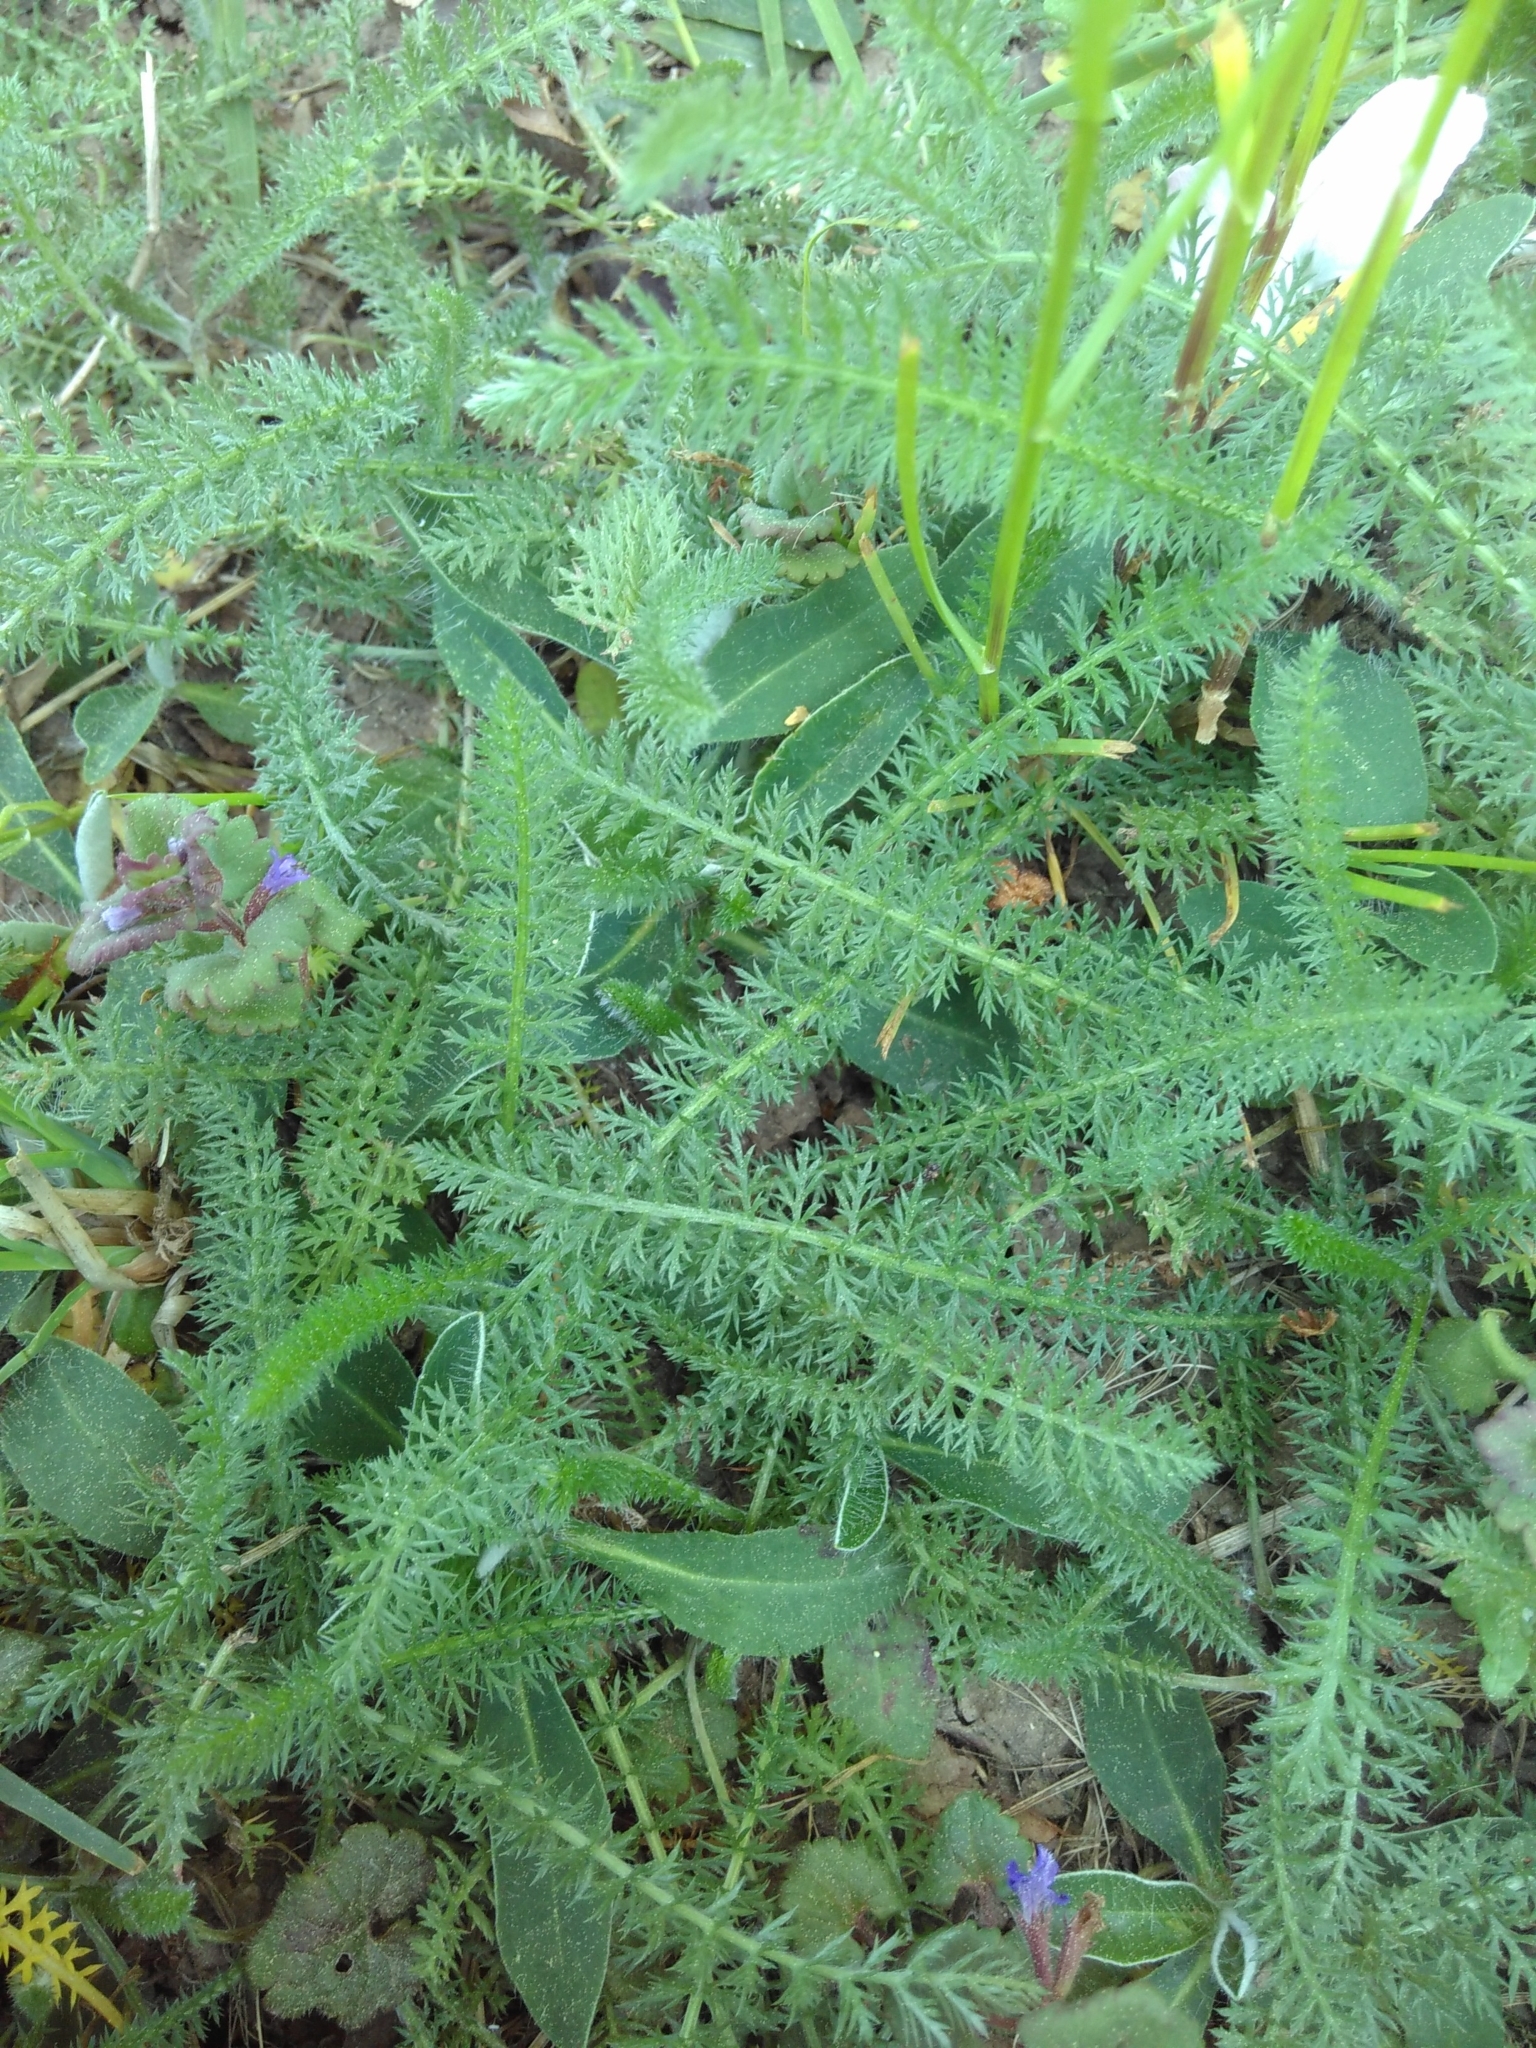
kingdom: Plantae
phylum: Tracheophyta
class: Magnoliopsida
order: Asterales
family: Asteraceae
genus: Achillea
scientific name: Achillea millefolium
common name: Yarrow
